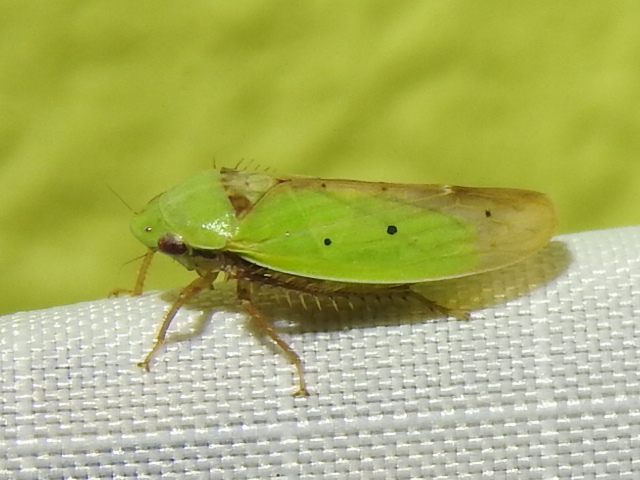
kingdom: Animalia
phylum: Arthropoda
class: Insecta
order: Hemiptera
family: Cicadellidae
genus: Ponana
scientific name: Ponana
